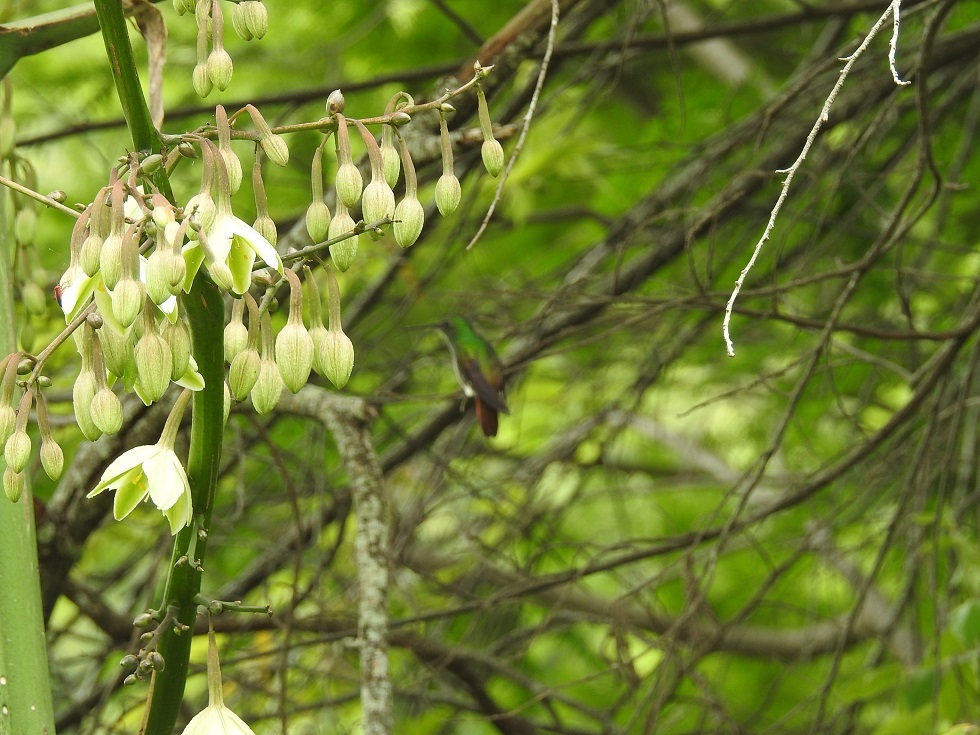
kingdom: Animalia
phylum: Chordata
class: Aves
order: Apodiformes
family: Trochilidae
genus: Saucerottia
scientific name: Saucerottia beryllina
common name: Berylline hummingbird
